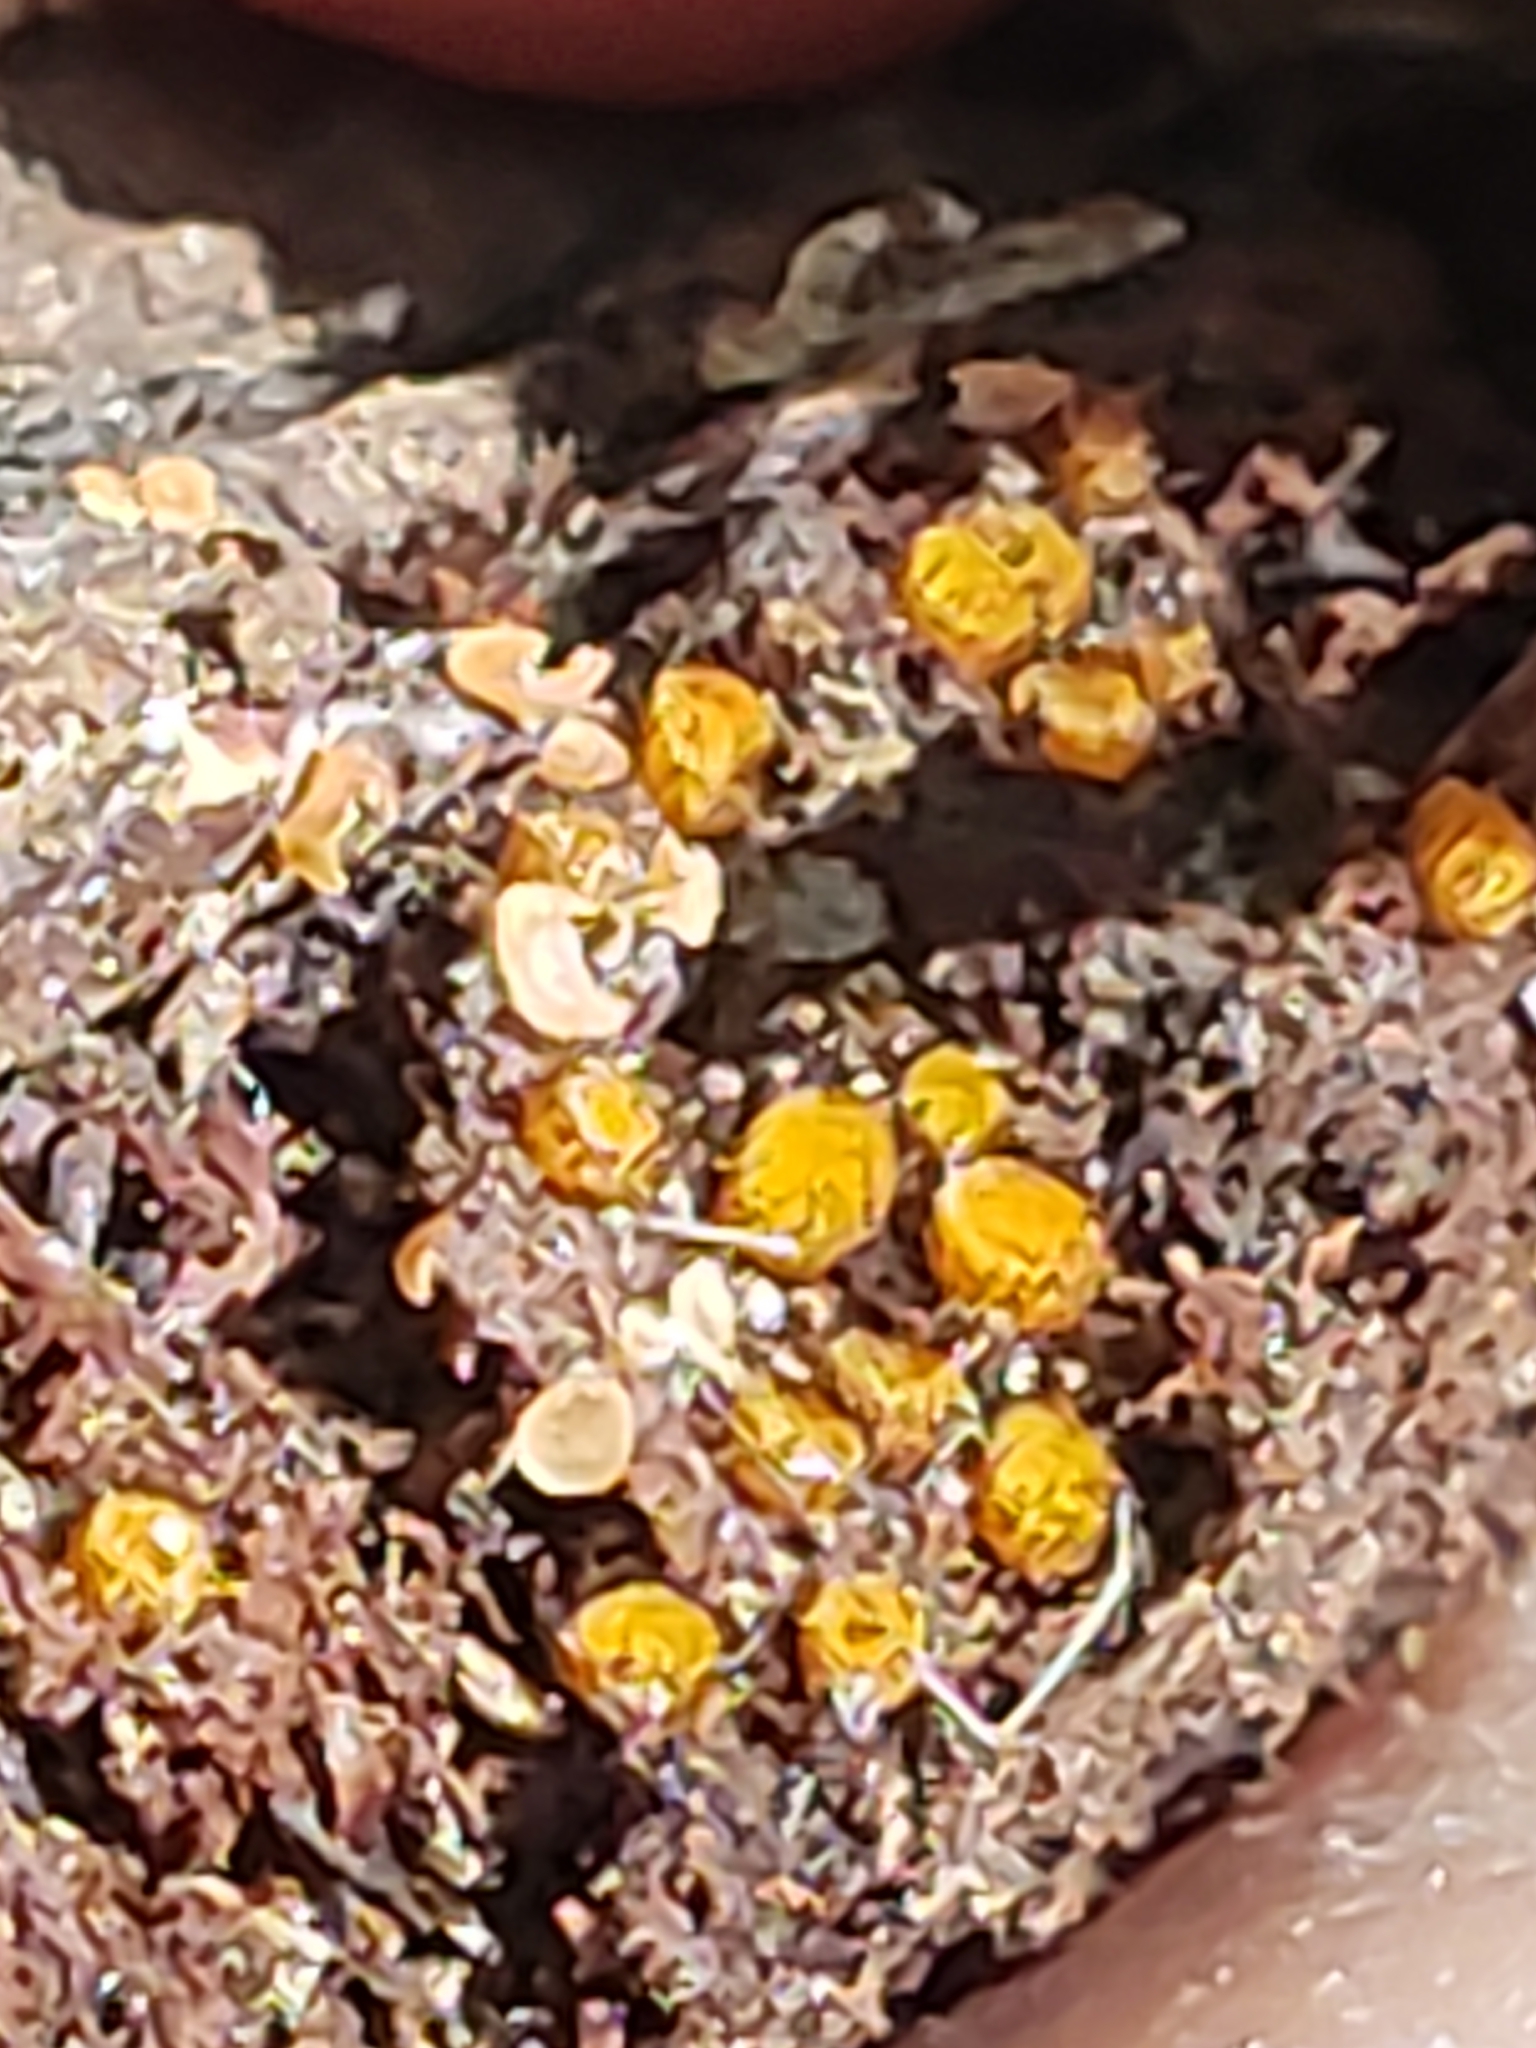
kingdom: Fungi
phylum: Ascomycota
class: Pezizomycetes
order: Pezizales
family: Pyronemataceae
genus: Scutellinia
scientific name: Scutellinia setosa
